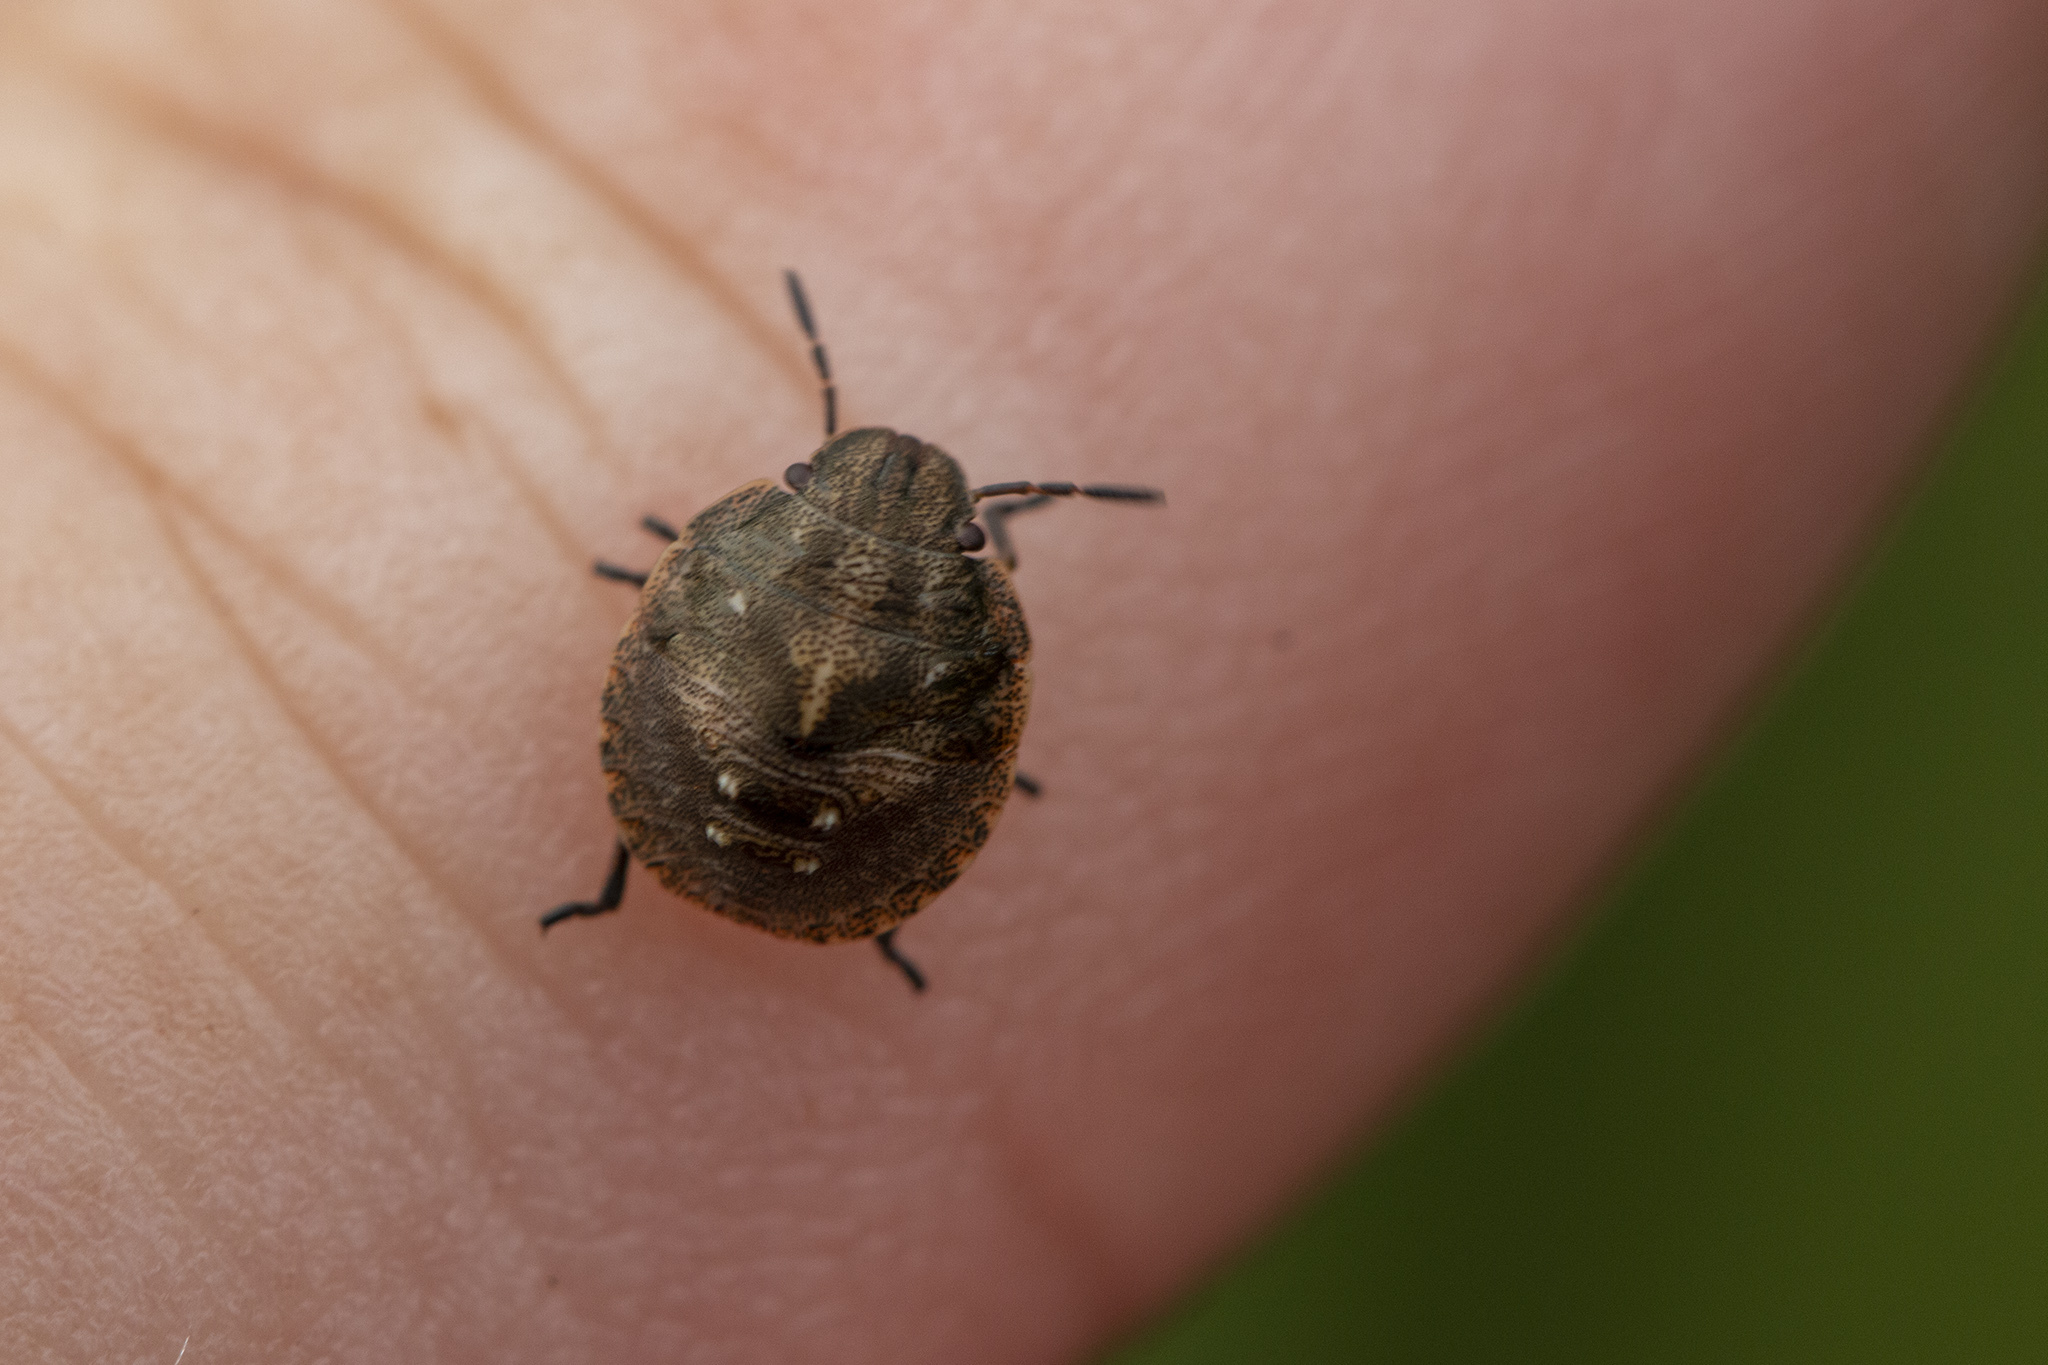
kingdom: Animalia
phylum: Arthropoda
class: Insecta
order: Hemiptera
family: Scutelleridae
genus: Eurygaster
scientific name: Eurygaster testudinaria
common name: Tortoise bug
